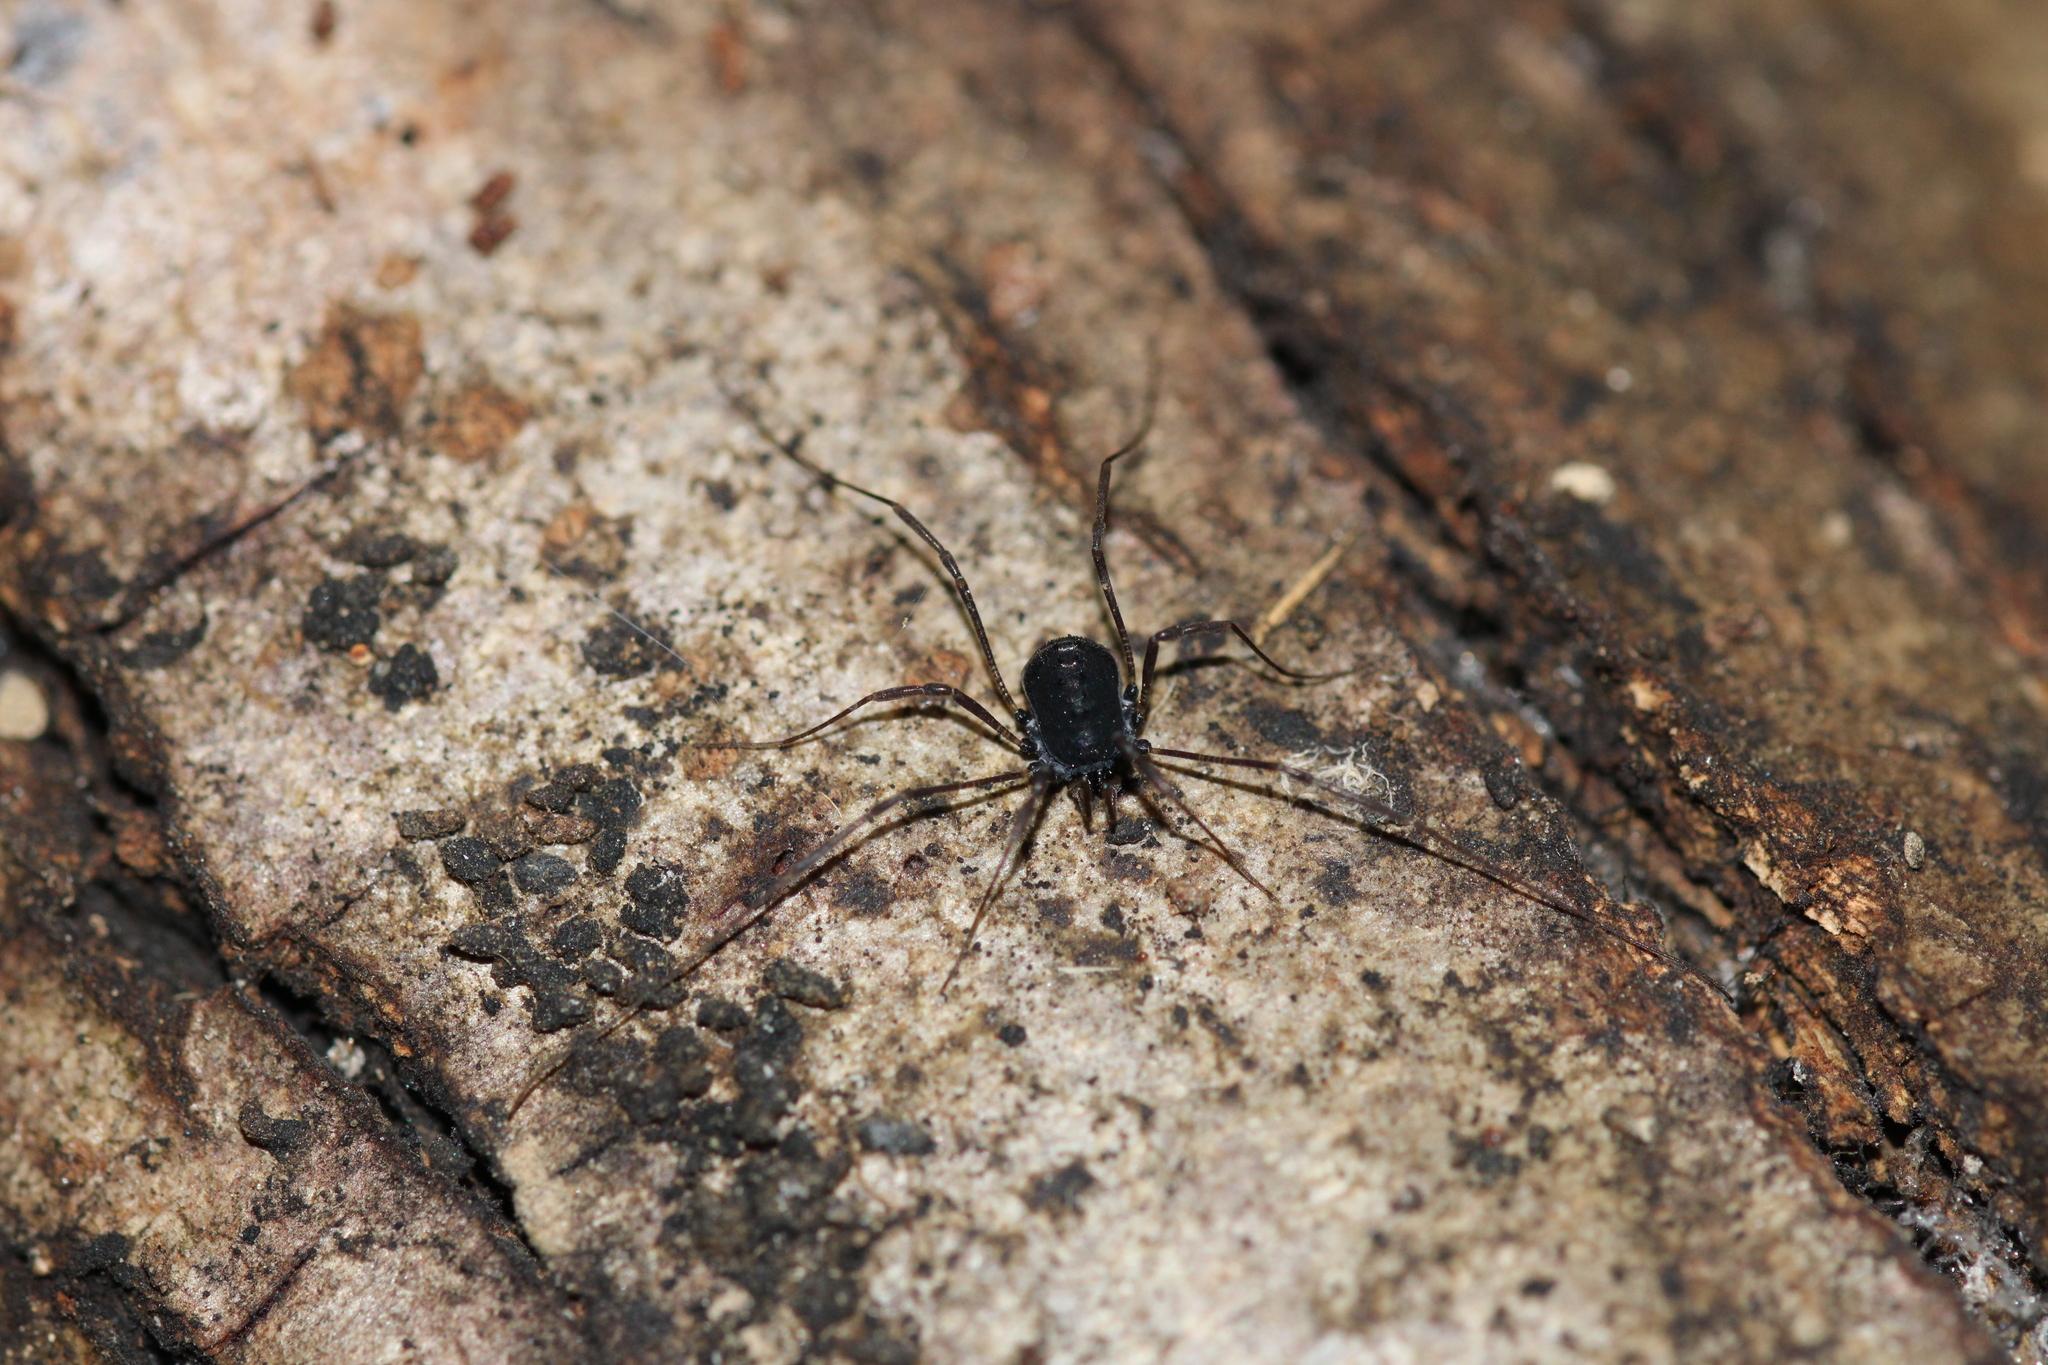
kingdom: Animalia
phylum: Arthropoda
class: Arachnida
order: Opiliones
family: Nemastomatidae
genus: Histricostoma
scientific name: Histricostoma dentipalpe
